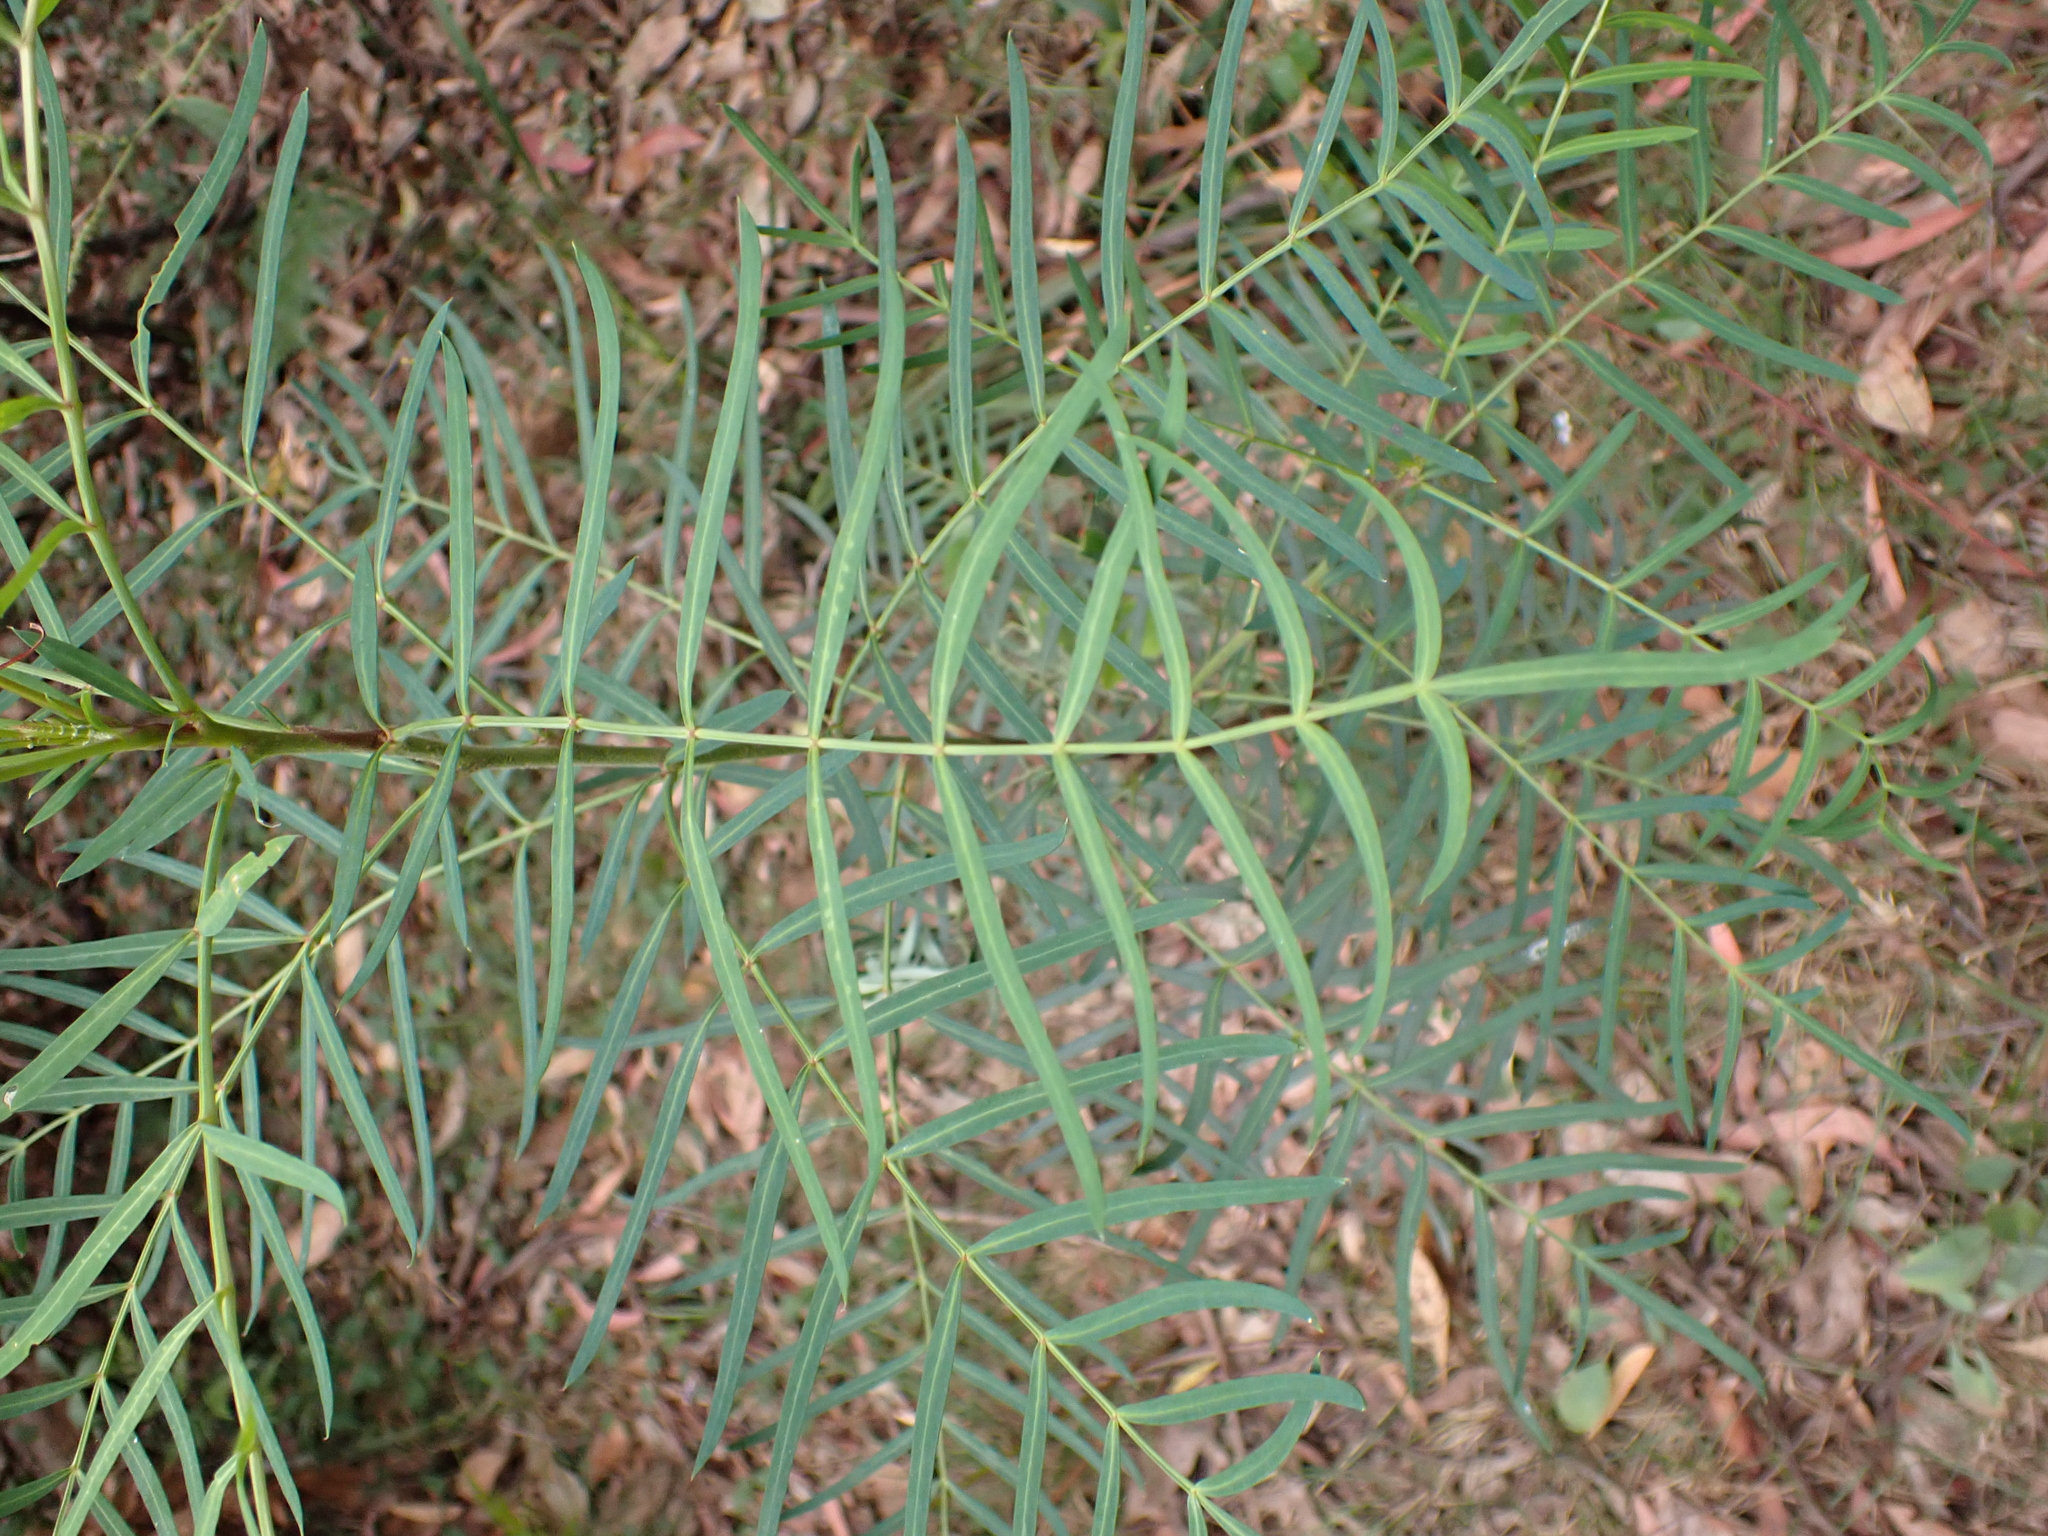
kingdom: Plantae
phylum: Tracheophyta
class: Magnoliopsida
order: Apiales
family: Araliaceae
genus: Polyscias
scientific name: Polyscias sambucifolia
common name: Elderberry-ash
